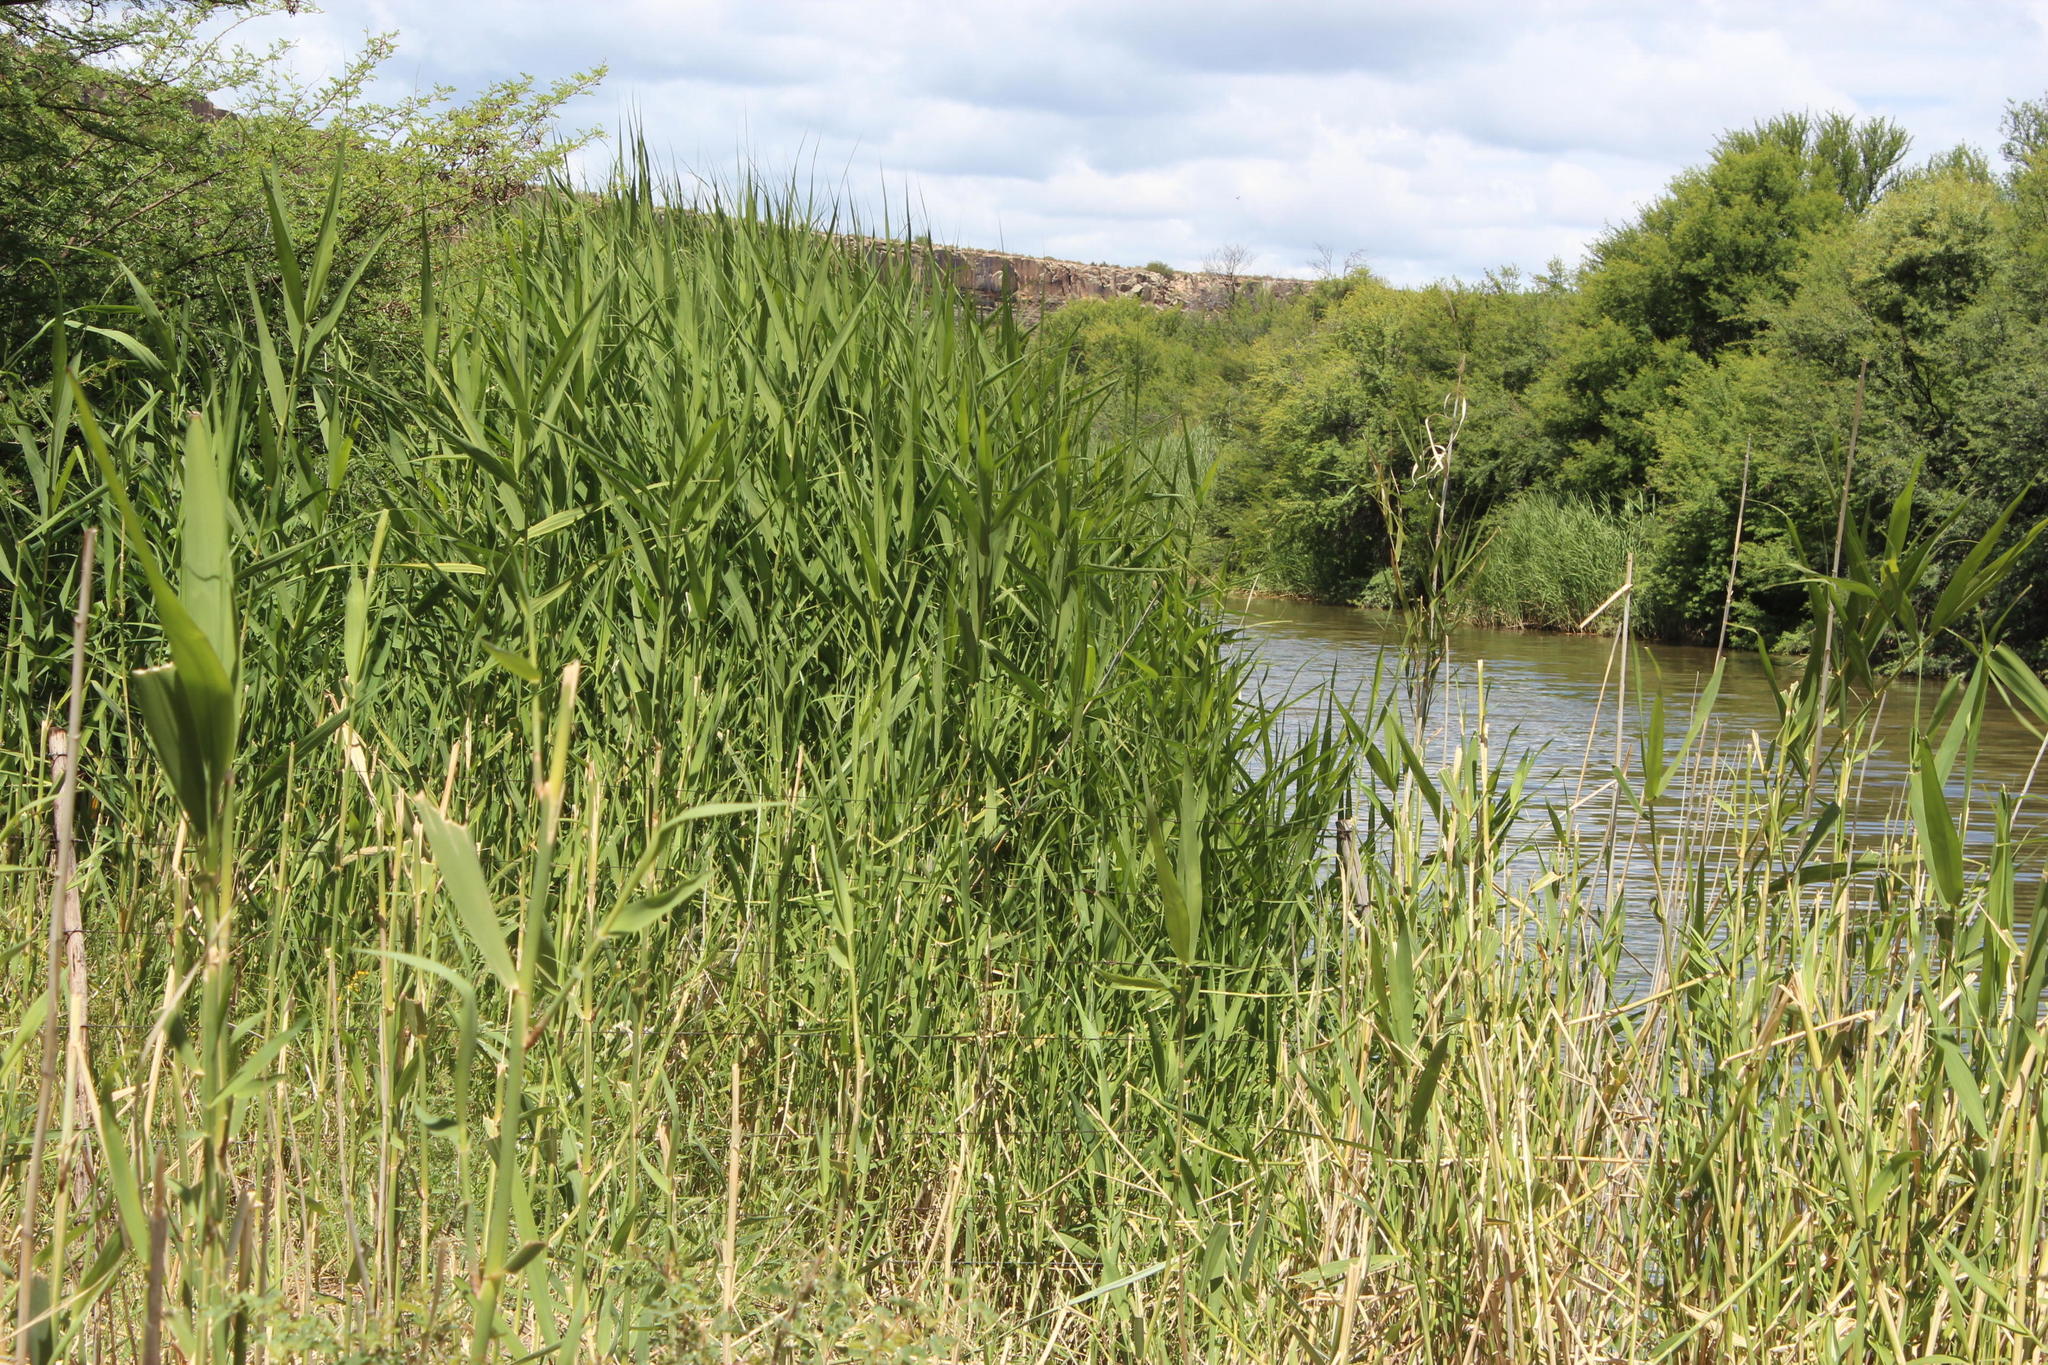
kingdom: Plantae
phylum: Tracheophyta
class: Liliopsida
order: Poales
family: Poaceae
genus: Phragmites
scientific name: Phragmites australis
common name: Common reed
